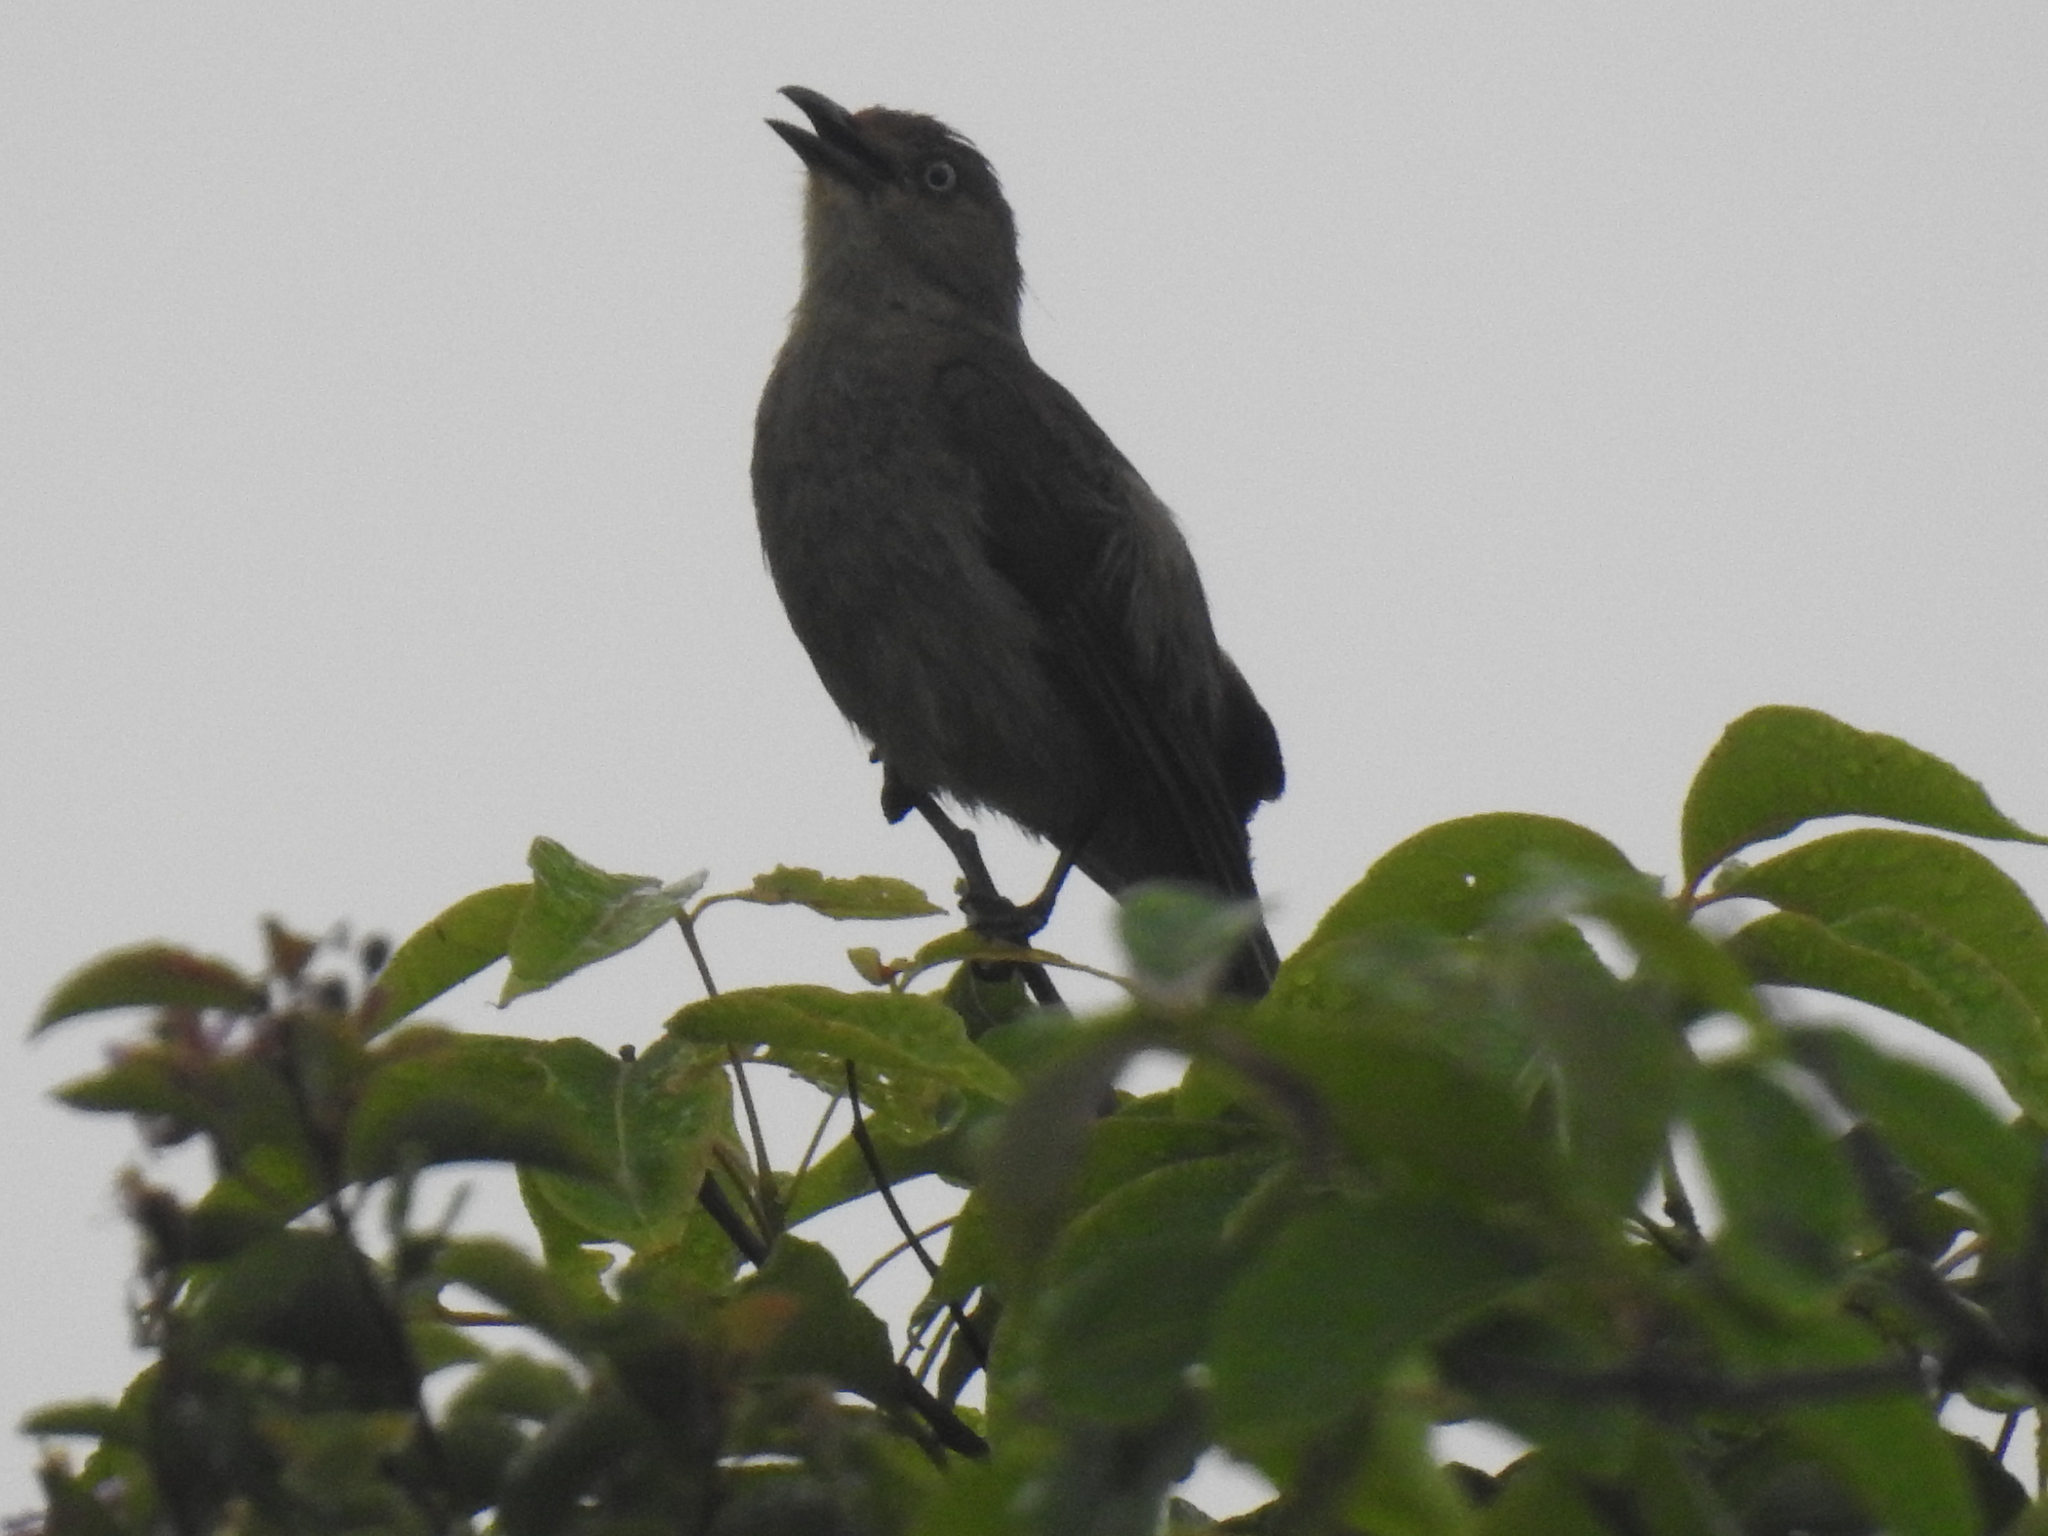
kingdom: Animalia
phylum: Chordata
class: Aves
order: Passeriformes
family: Pycnonotidae
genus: Andropadus
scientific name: Andropadus importunus
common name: Sombre greenbul
